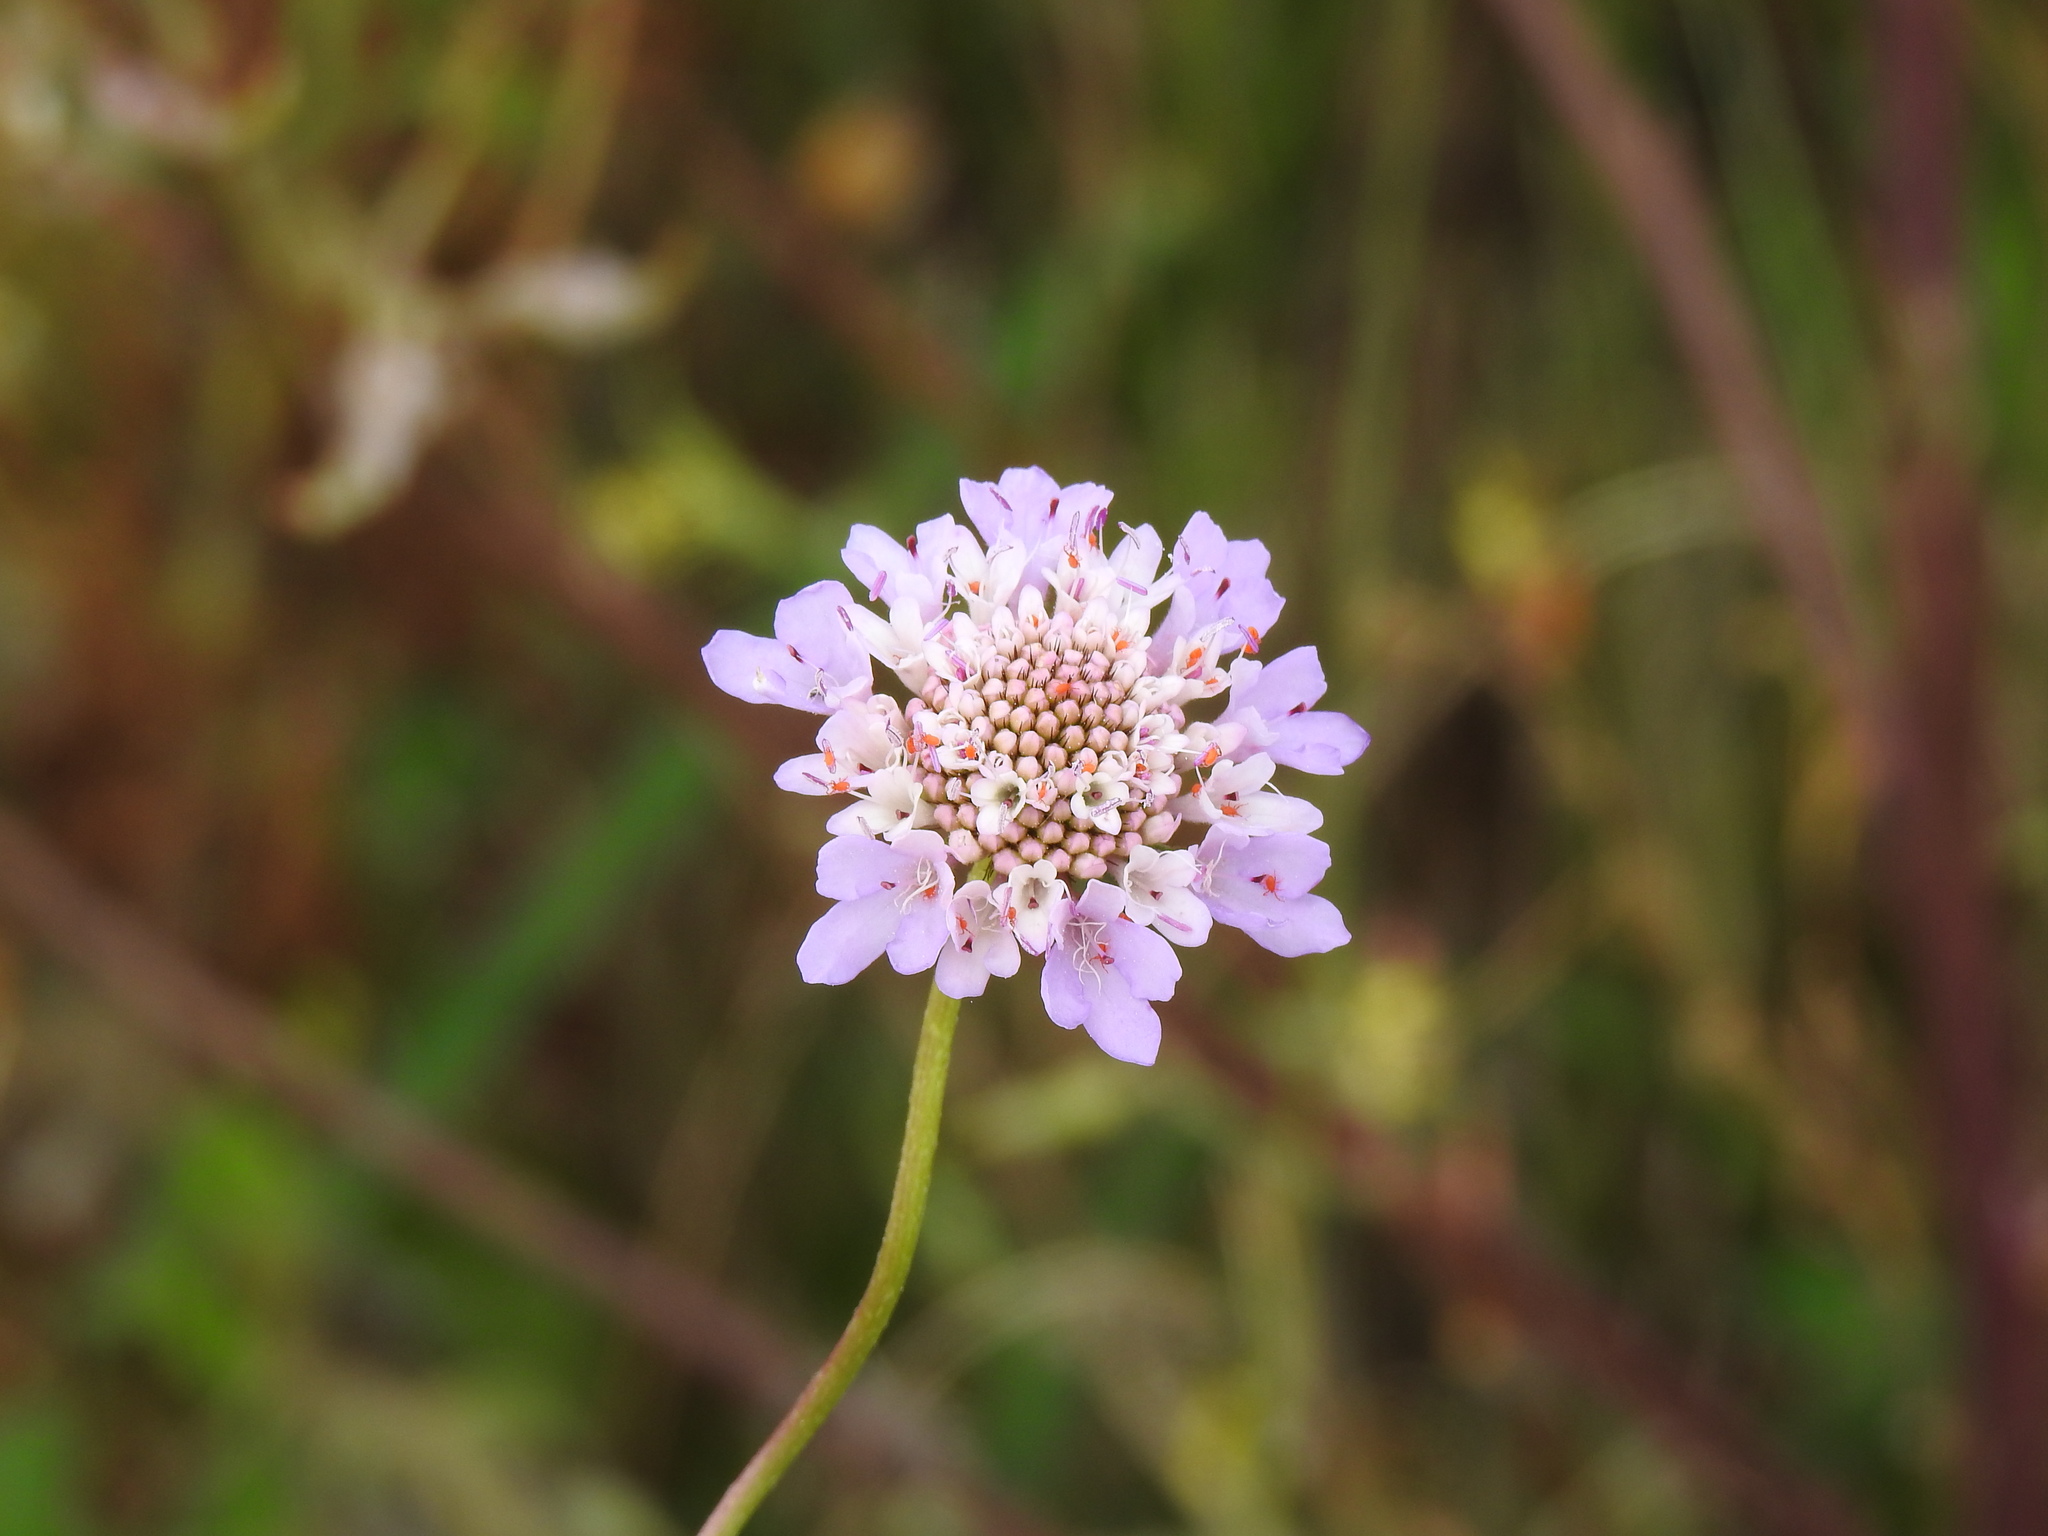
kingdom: Plantae
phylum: Tracheophyta
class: Magnoliopsida
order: Dipsacales
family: Caprifoliaceae
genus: Sixalix
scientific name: Sixalix atropurpurea
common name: Sweet scabious
